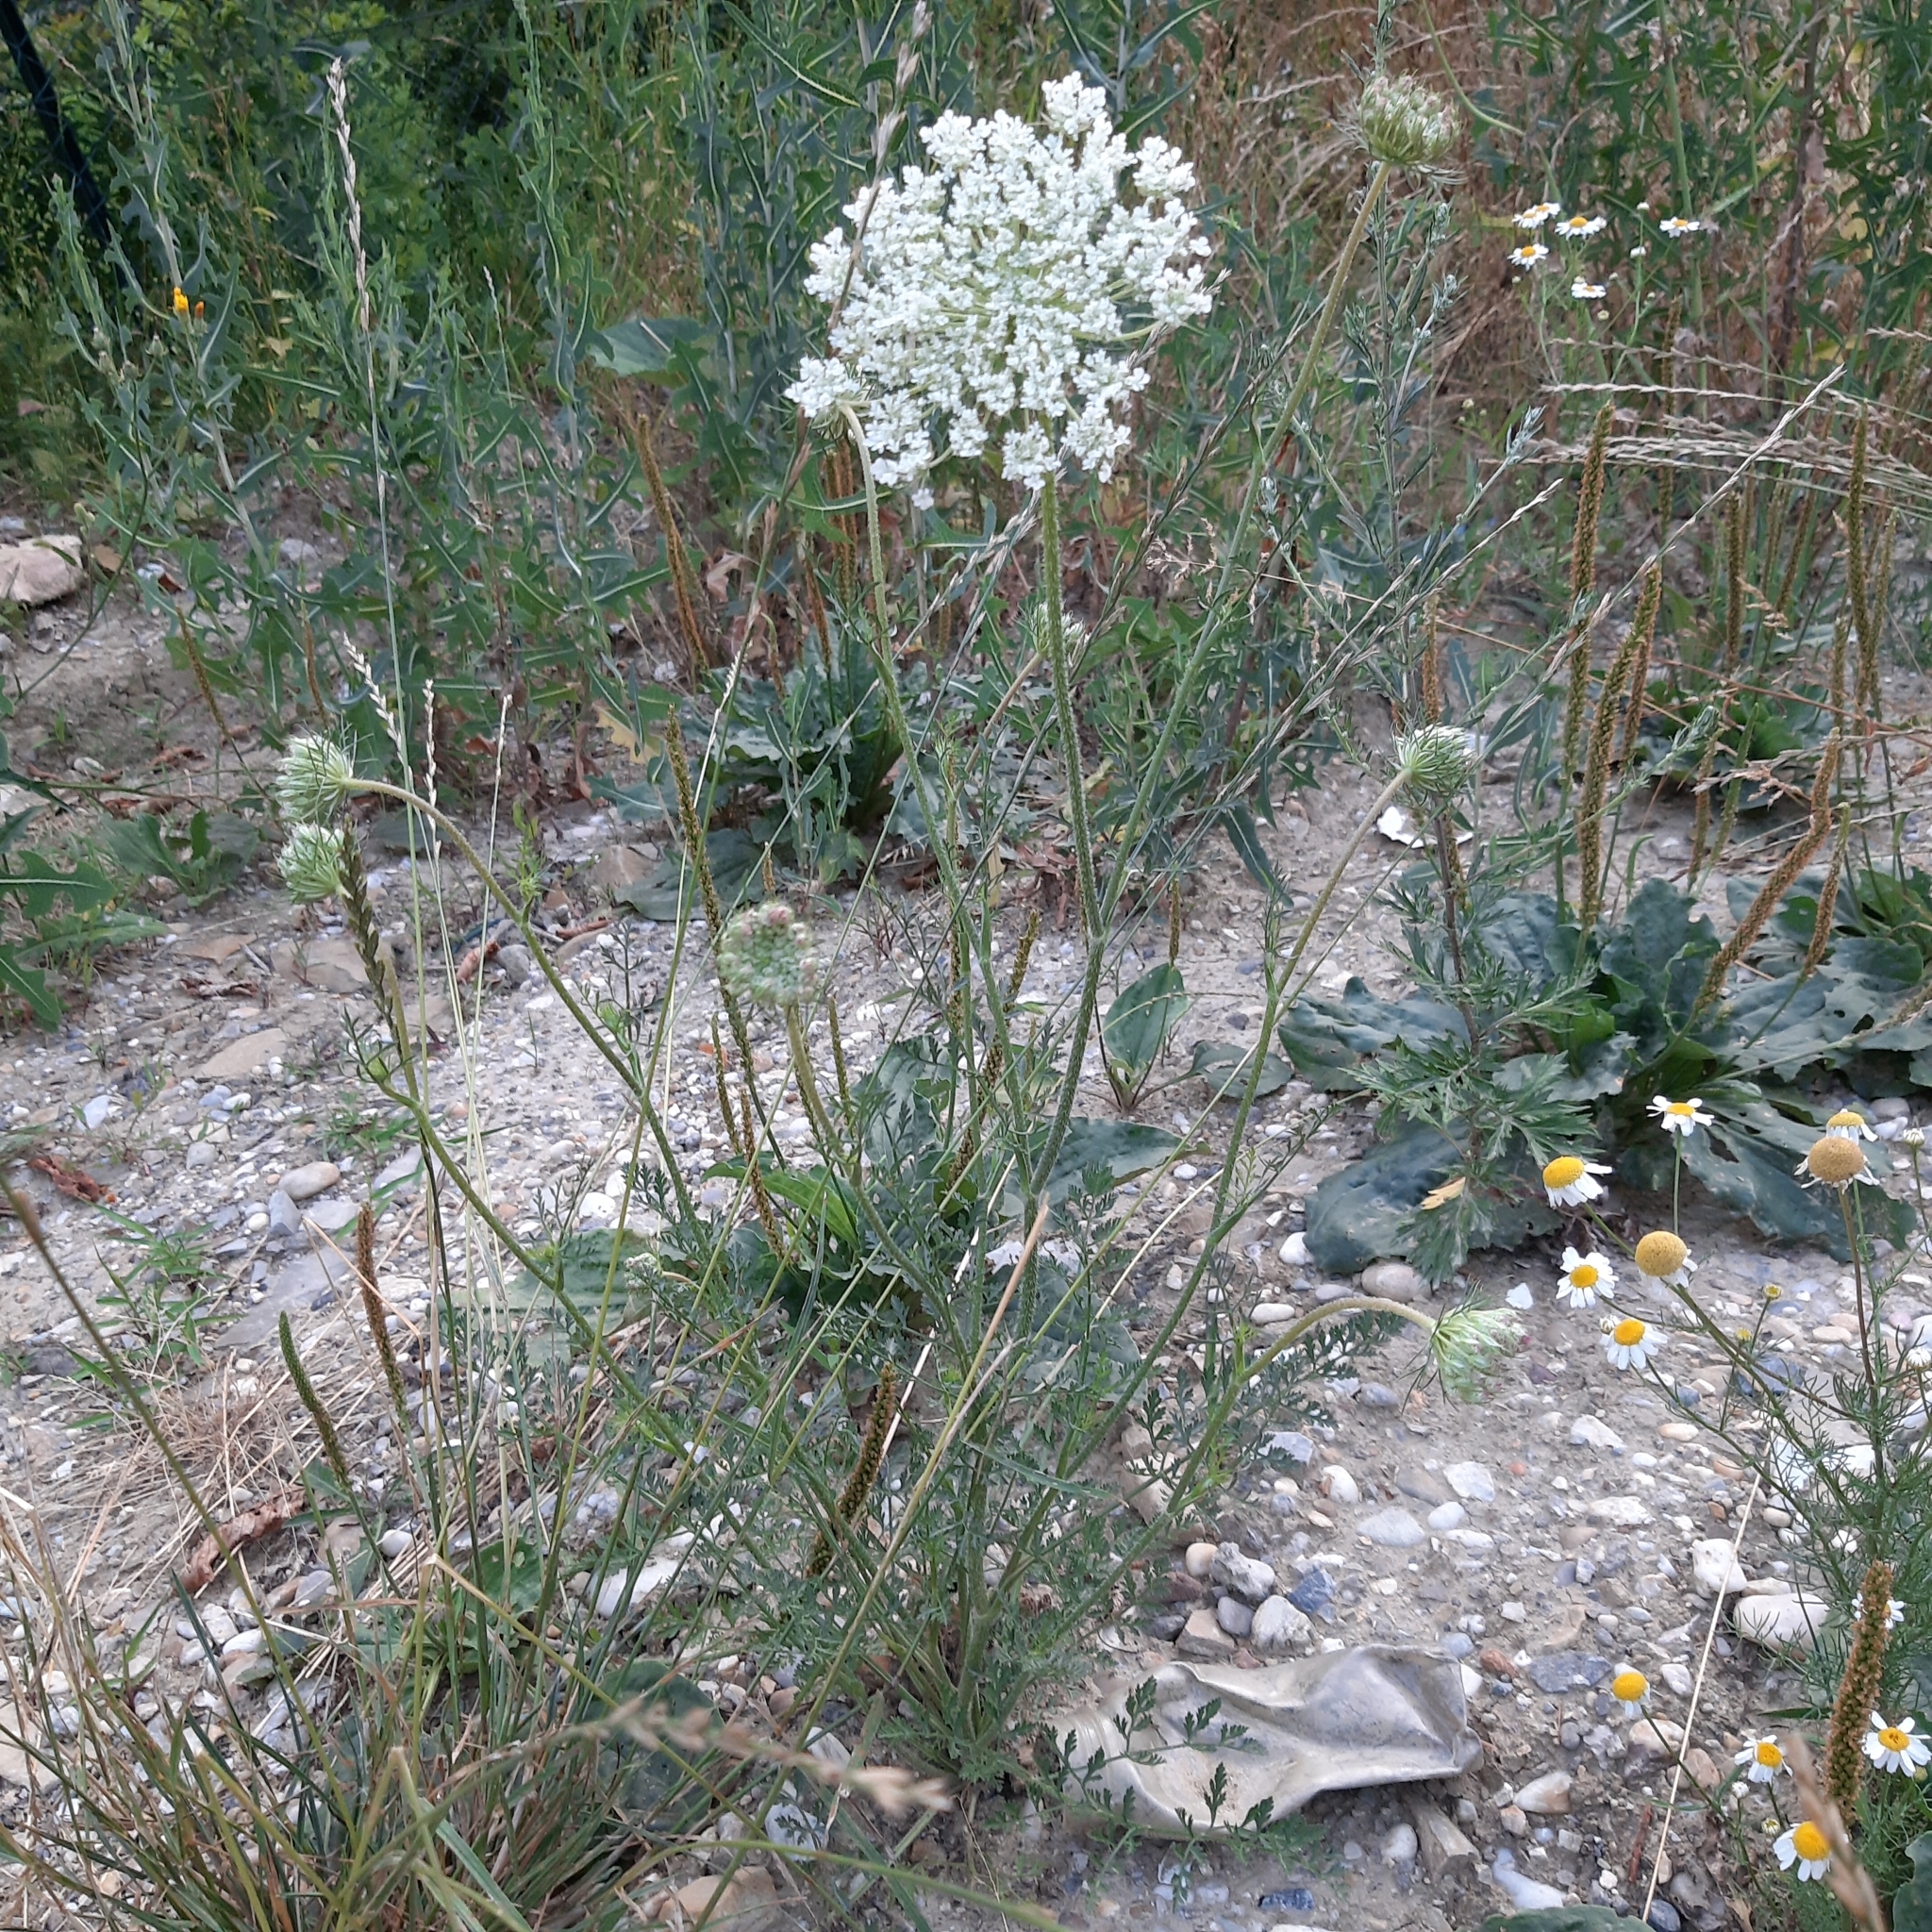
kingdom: Plantae
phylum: Tracheophyta
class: Magnoliopsida
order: Apiales
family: Apiaceae
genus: Daucus
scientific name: Daucus carota
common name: Wild carrot
